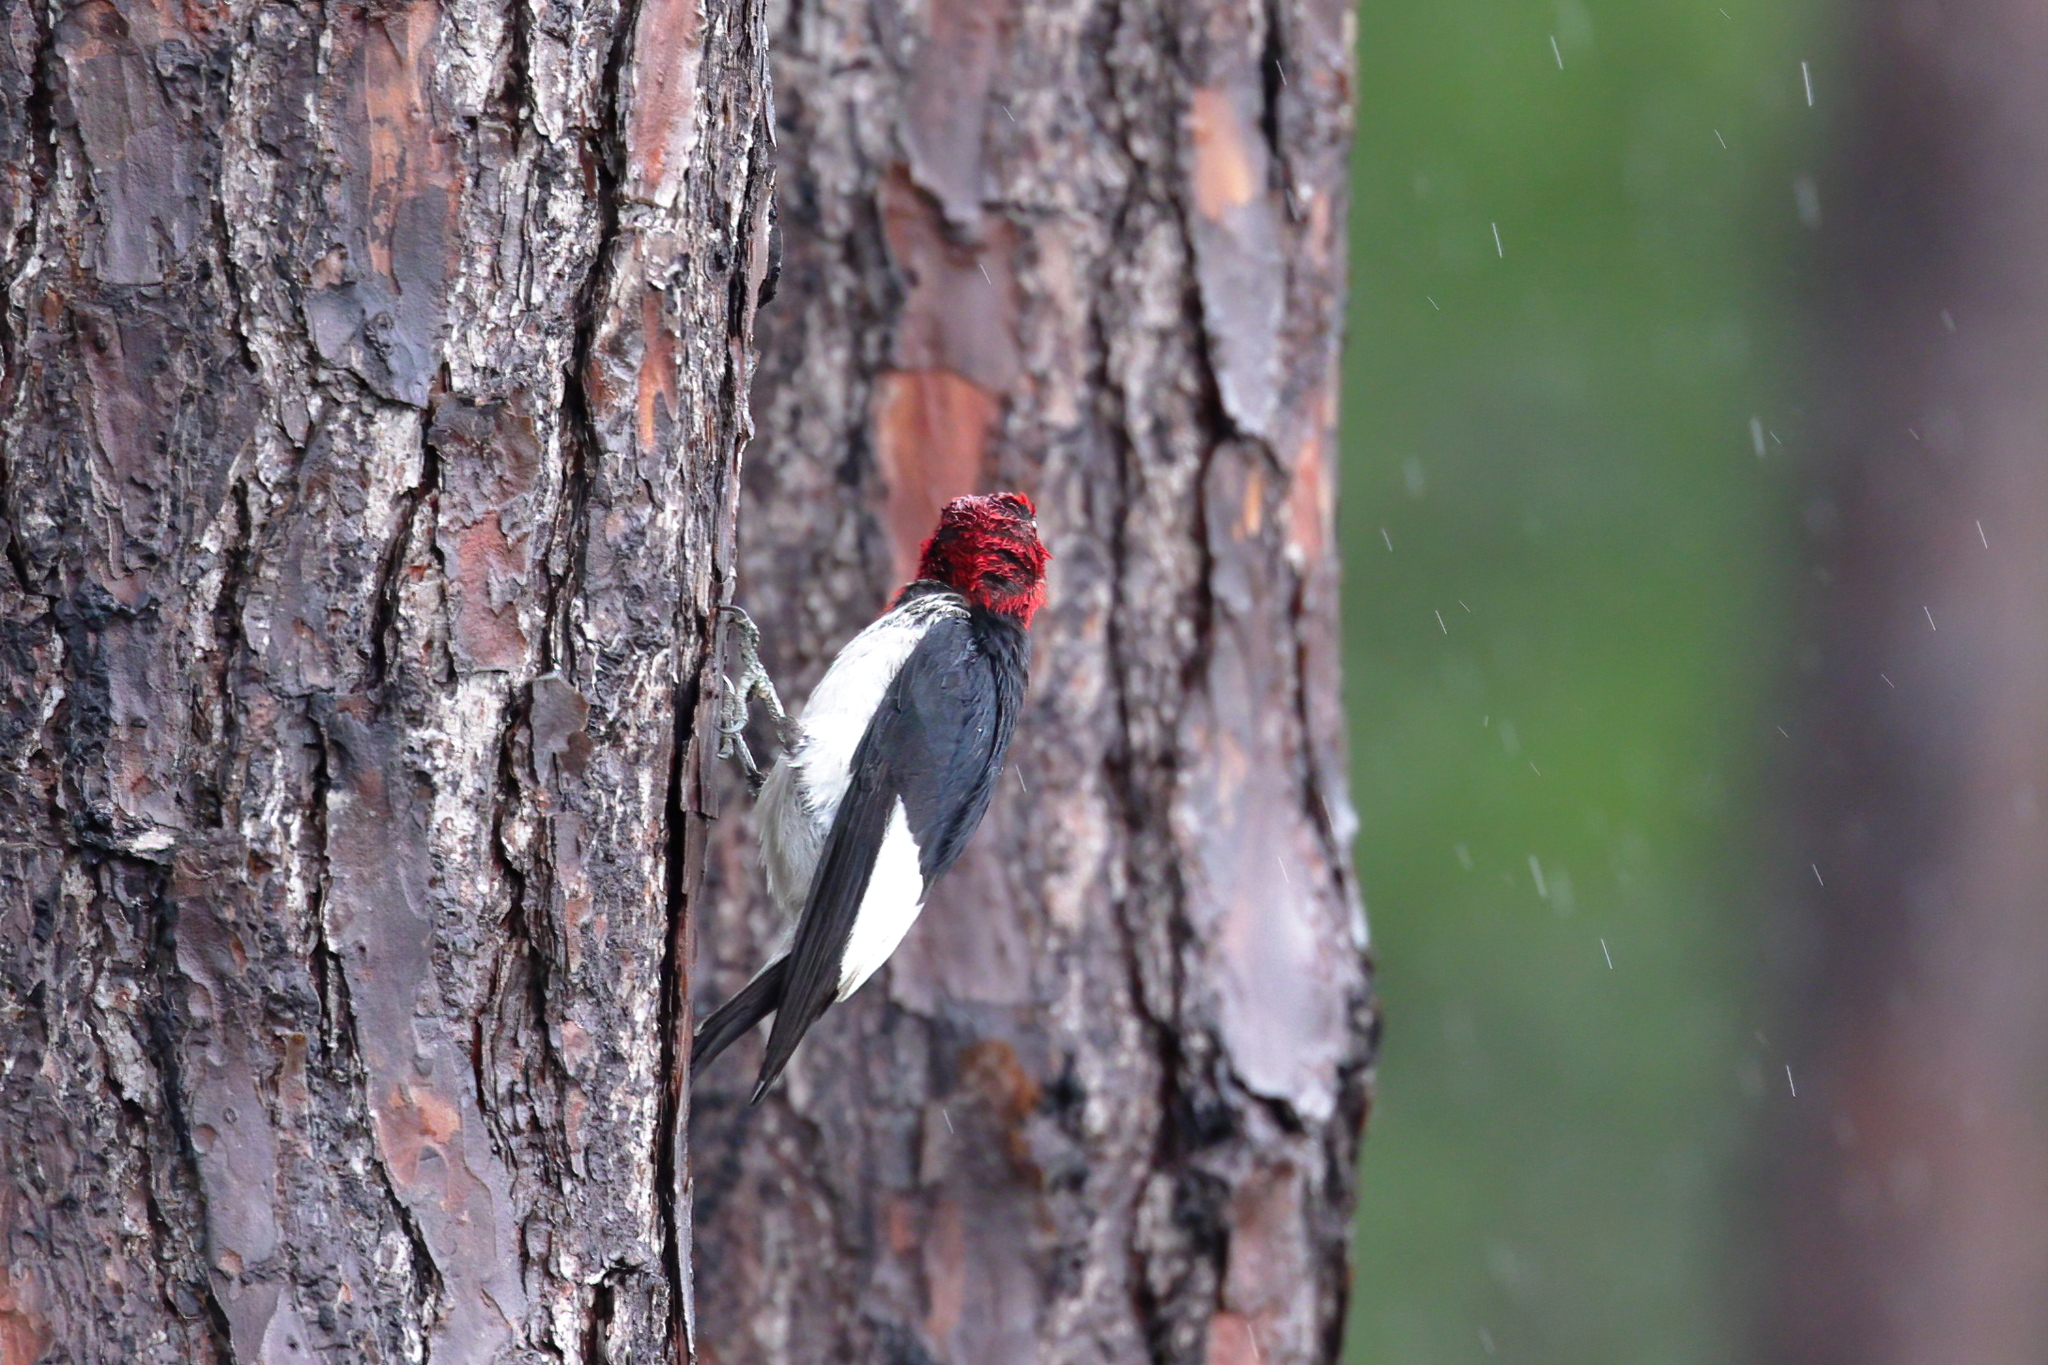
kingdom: Animalia
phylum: Chordata
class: Aves
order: Piciformes
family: Picidae
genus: Melanerpes
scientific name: Melanerpes erythrocephalus
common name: Red-headed woodpecker
